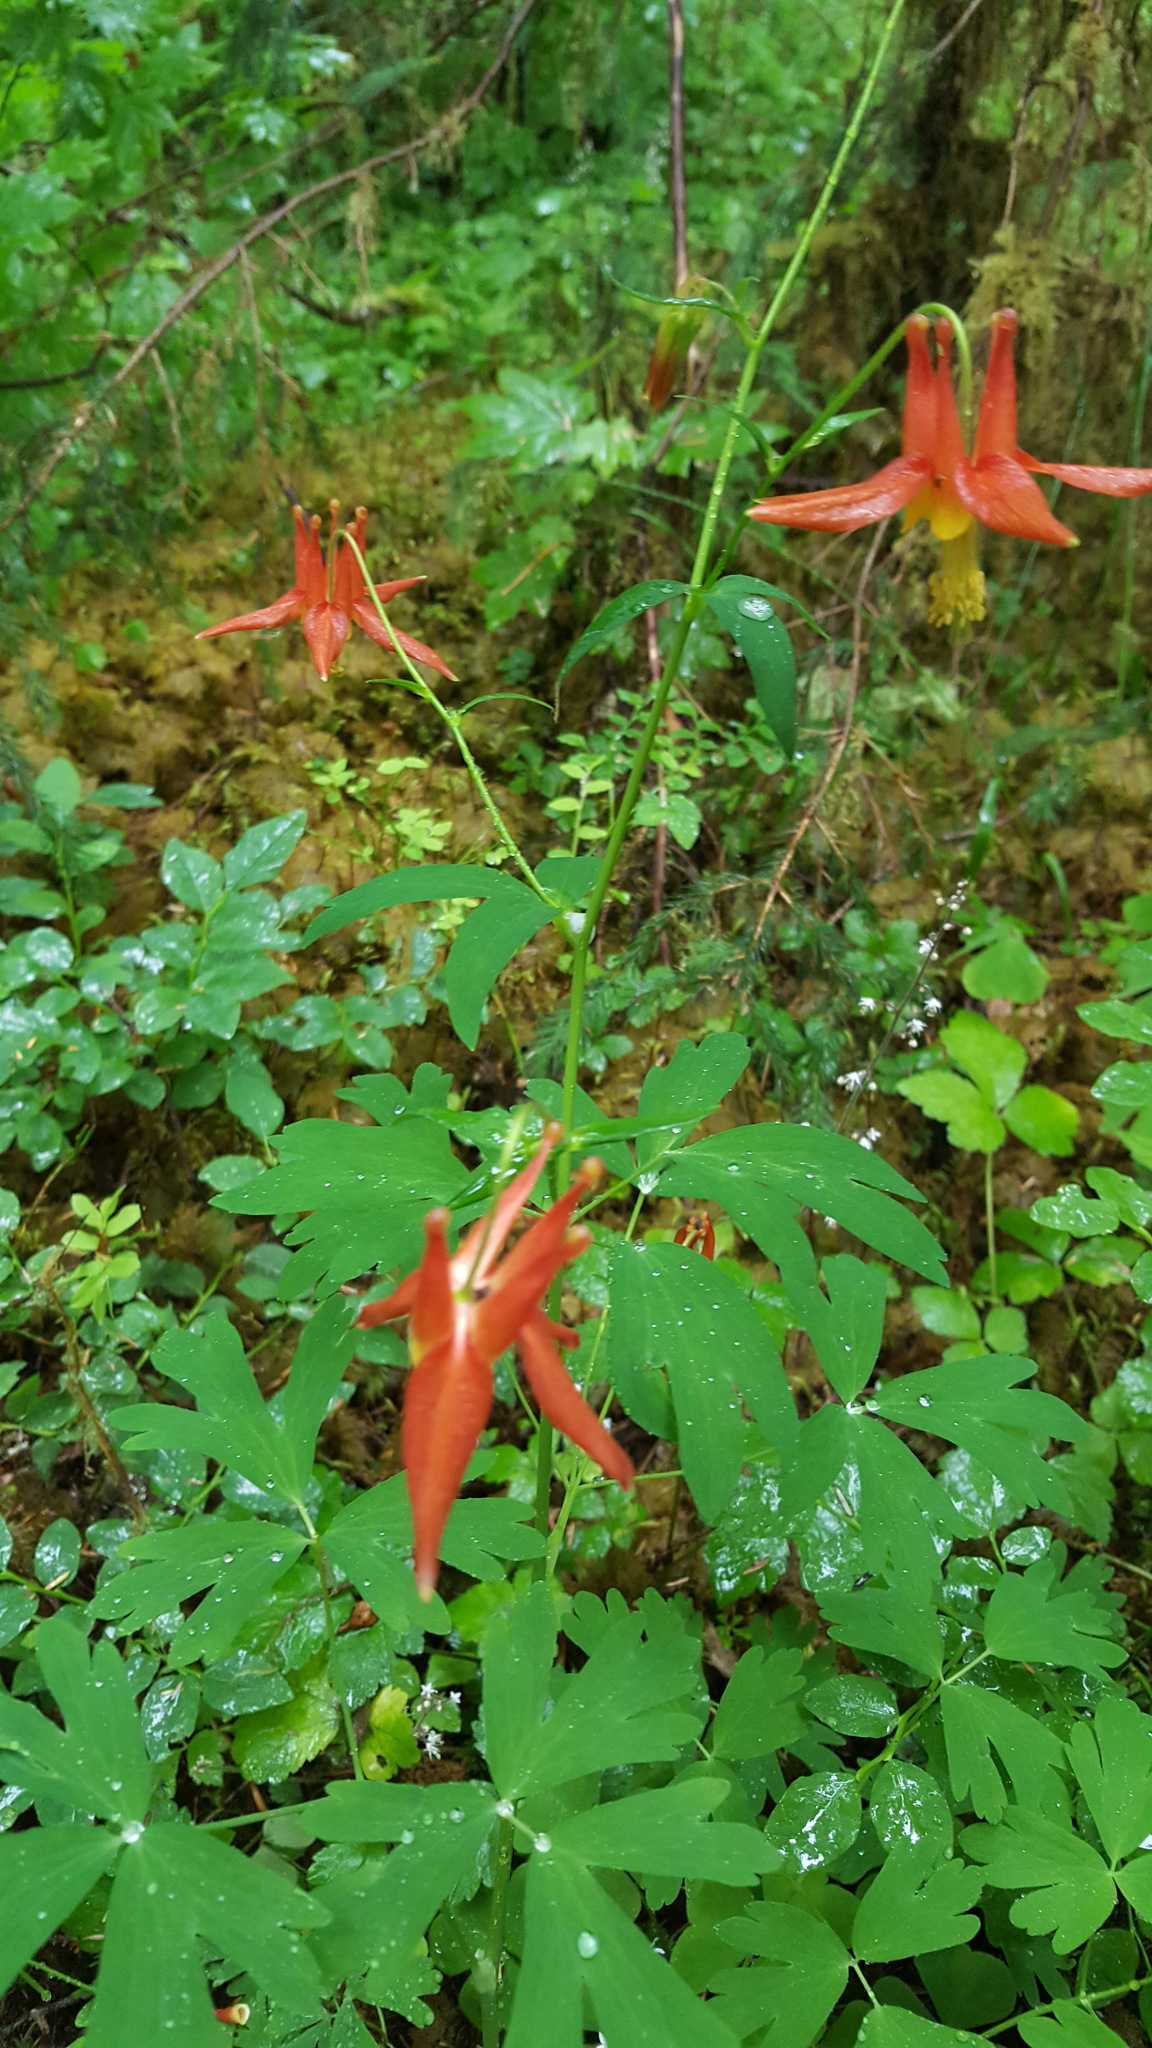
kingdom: Plantae
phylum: Tracheophyta
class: Magnoliopsida
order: Ranunculales
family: Ranunculaceae
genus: Aquilegia
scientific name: Aquilegia formosa
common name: Sitka columbine
